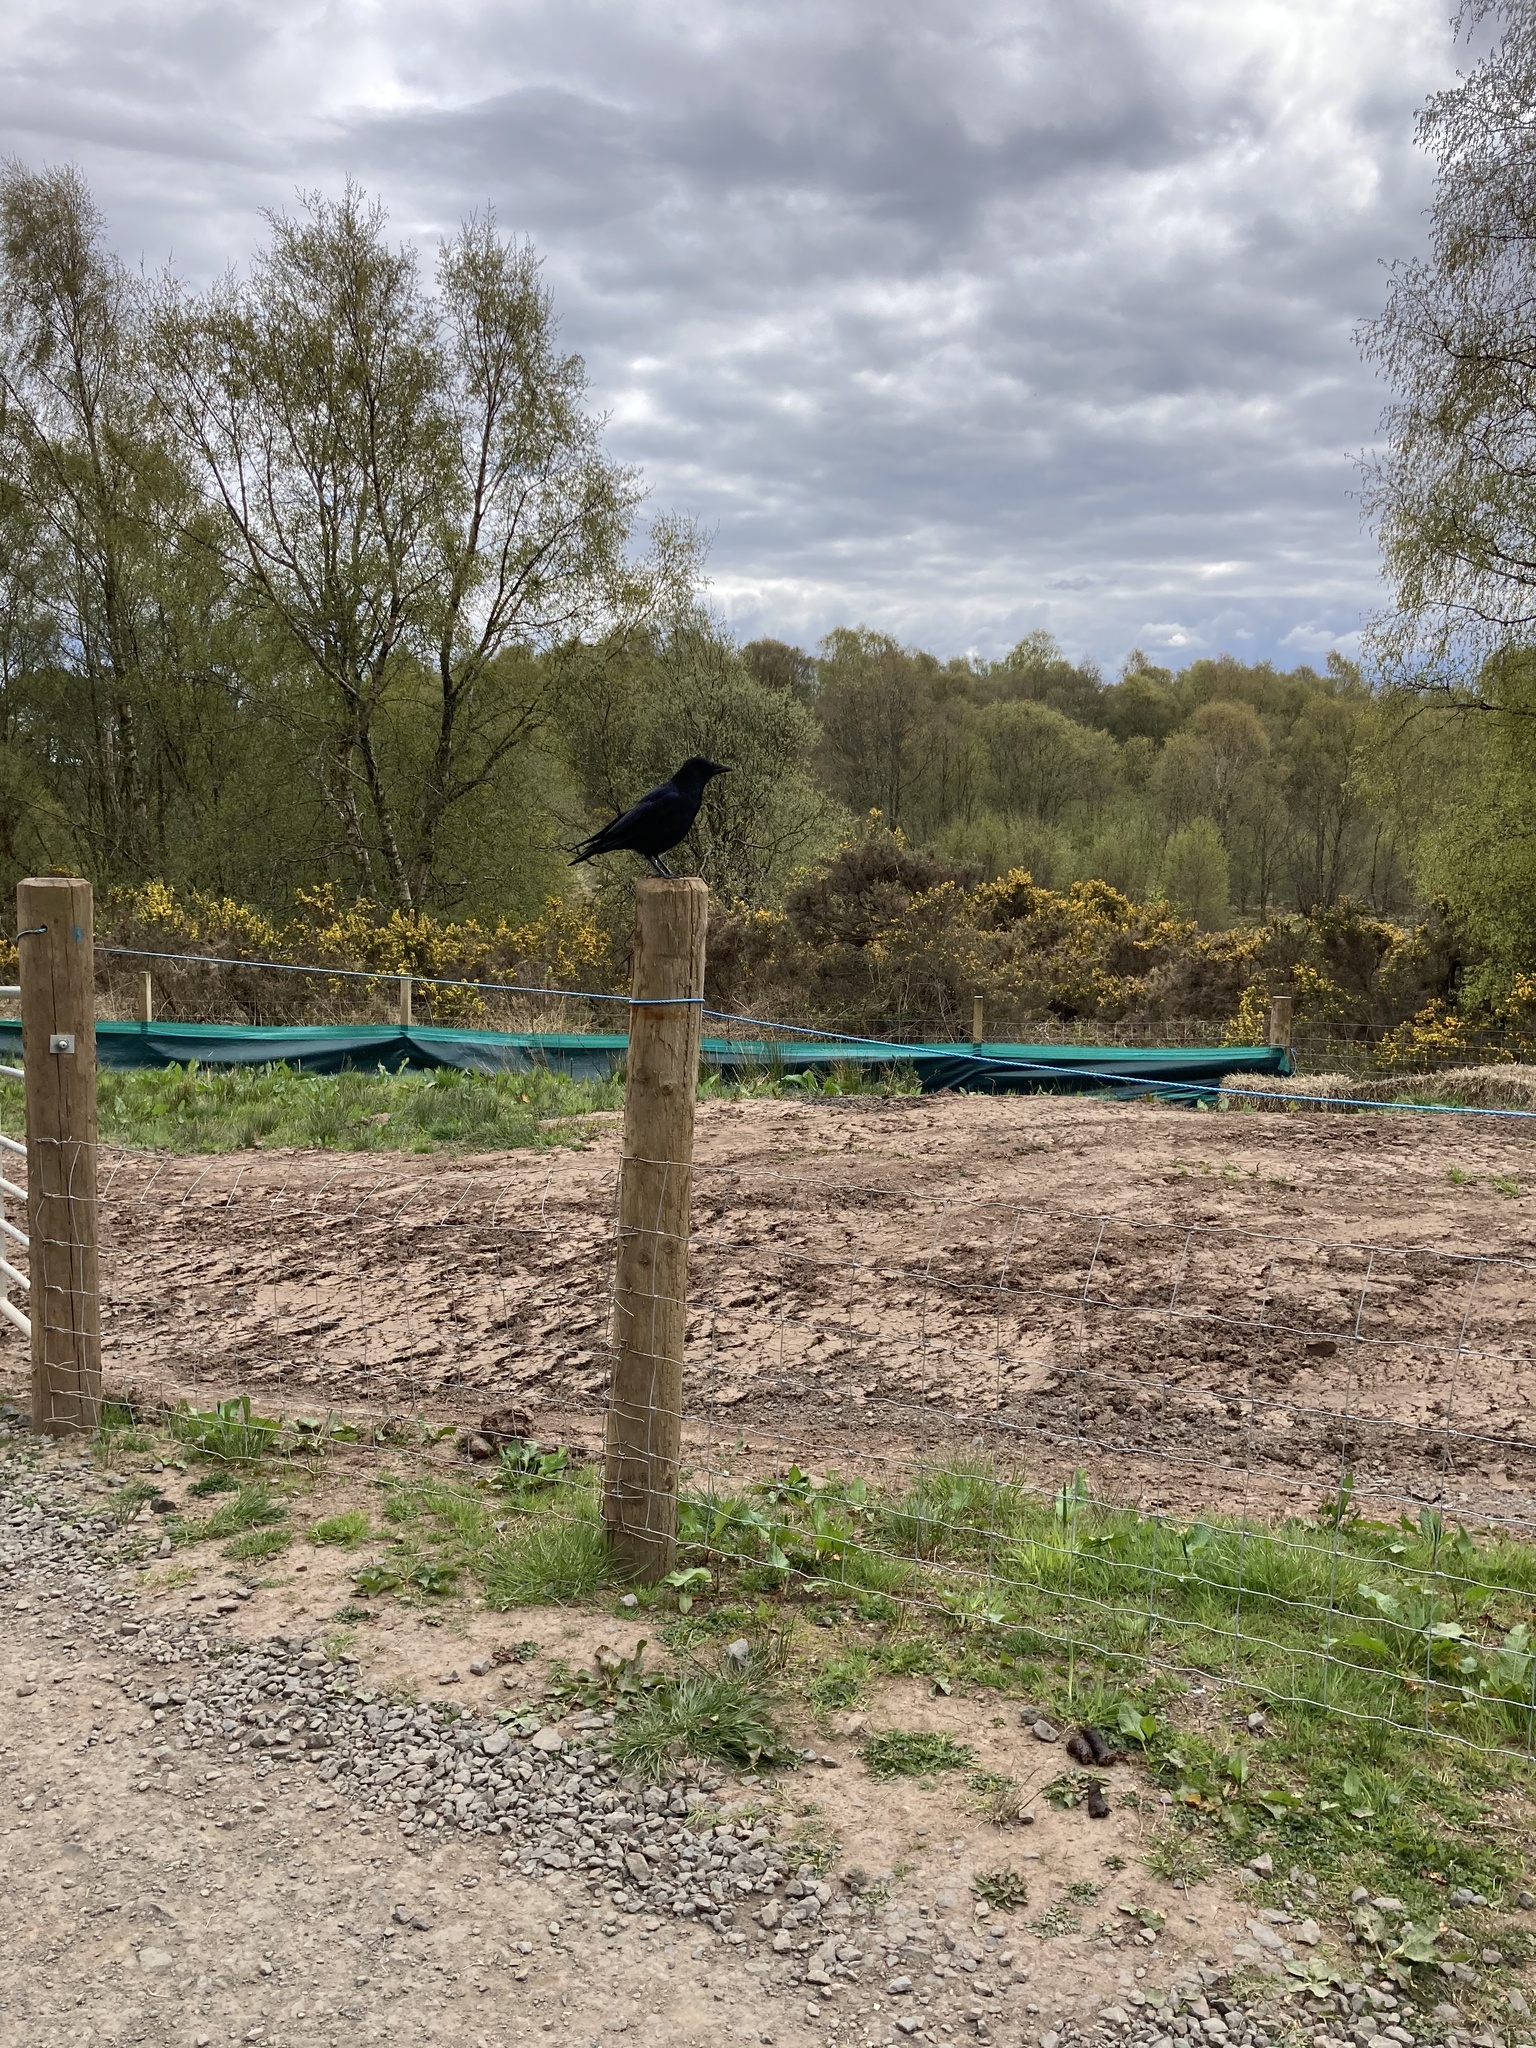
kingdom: Animalia
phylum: Chordata
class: Aves
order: Passeriformes
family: Corvidae
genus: Corvus
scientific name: Corvus corone
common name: Carrion crow
